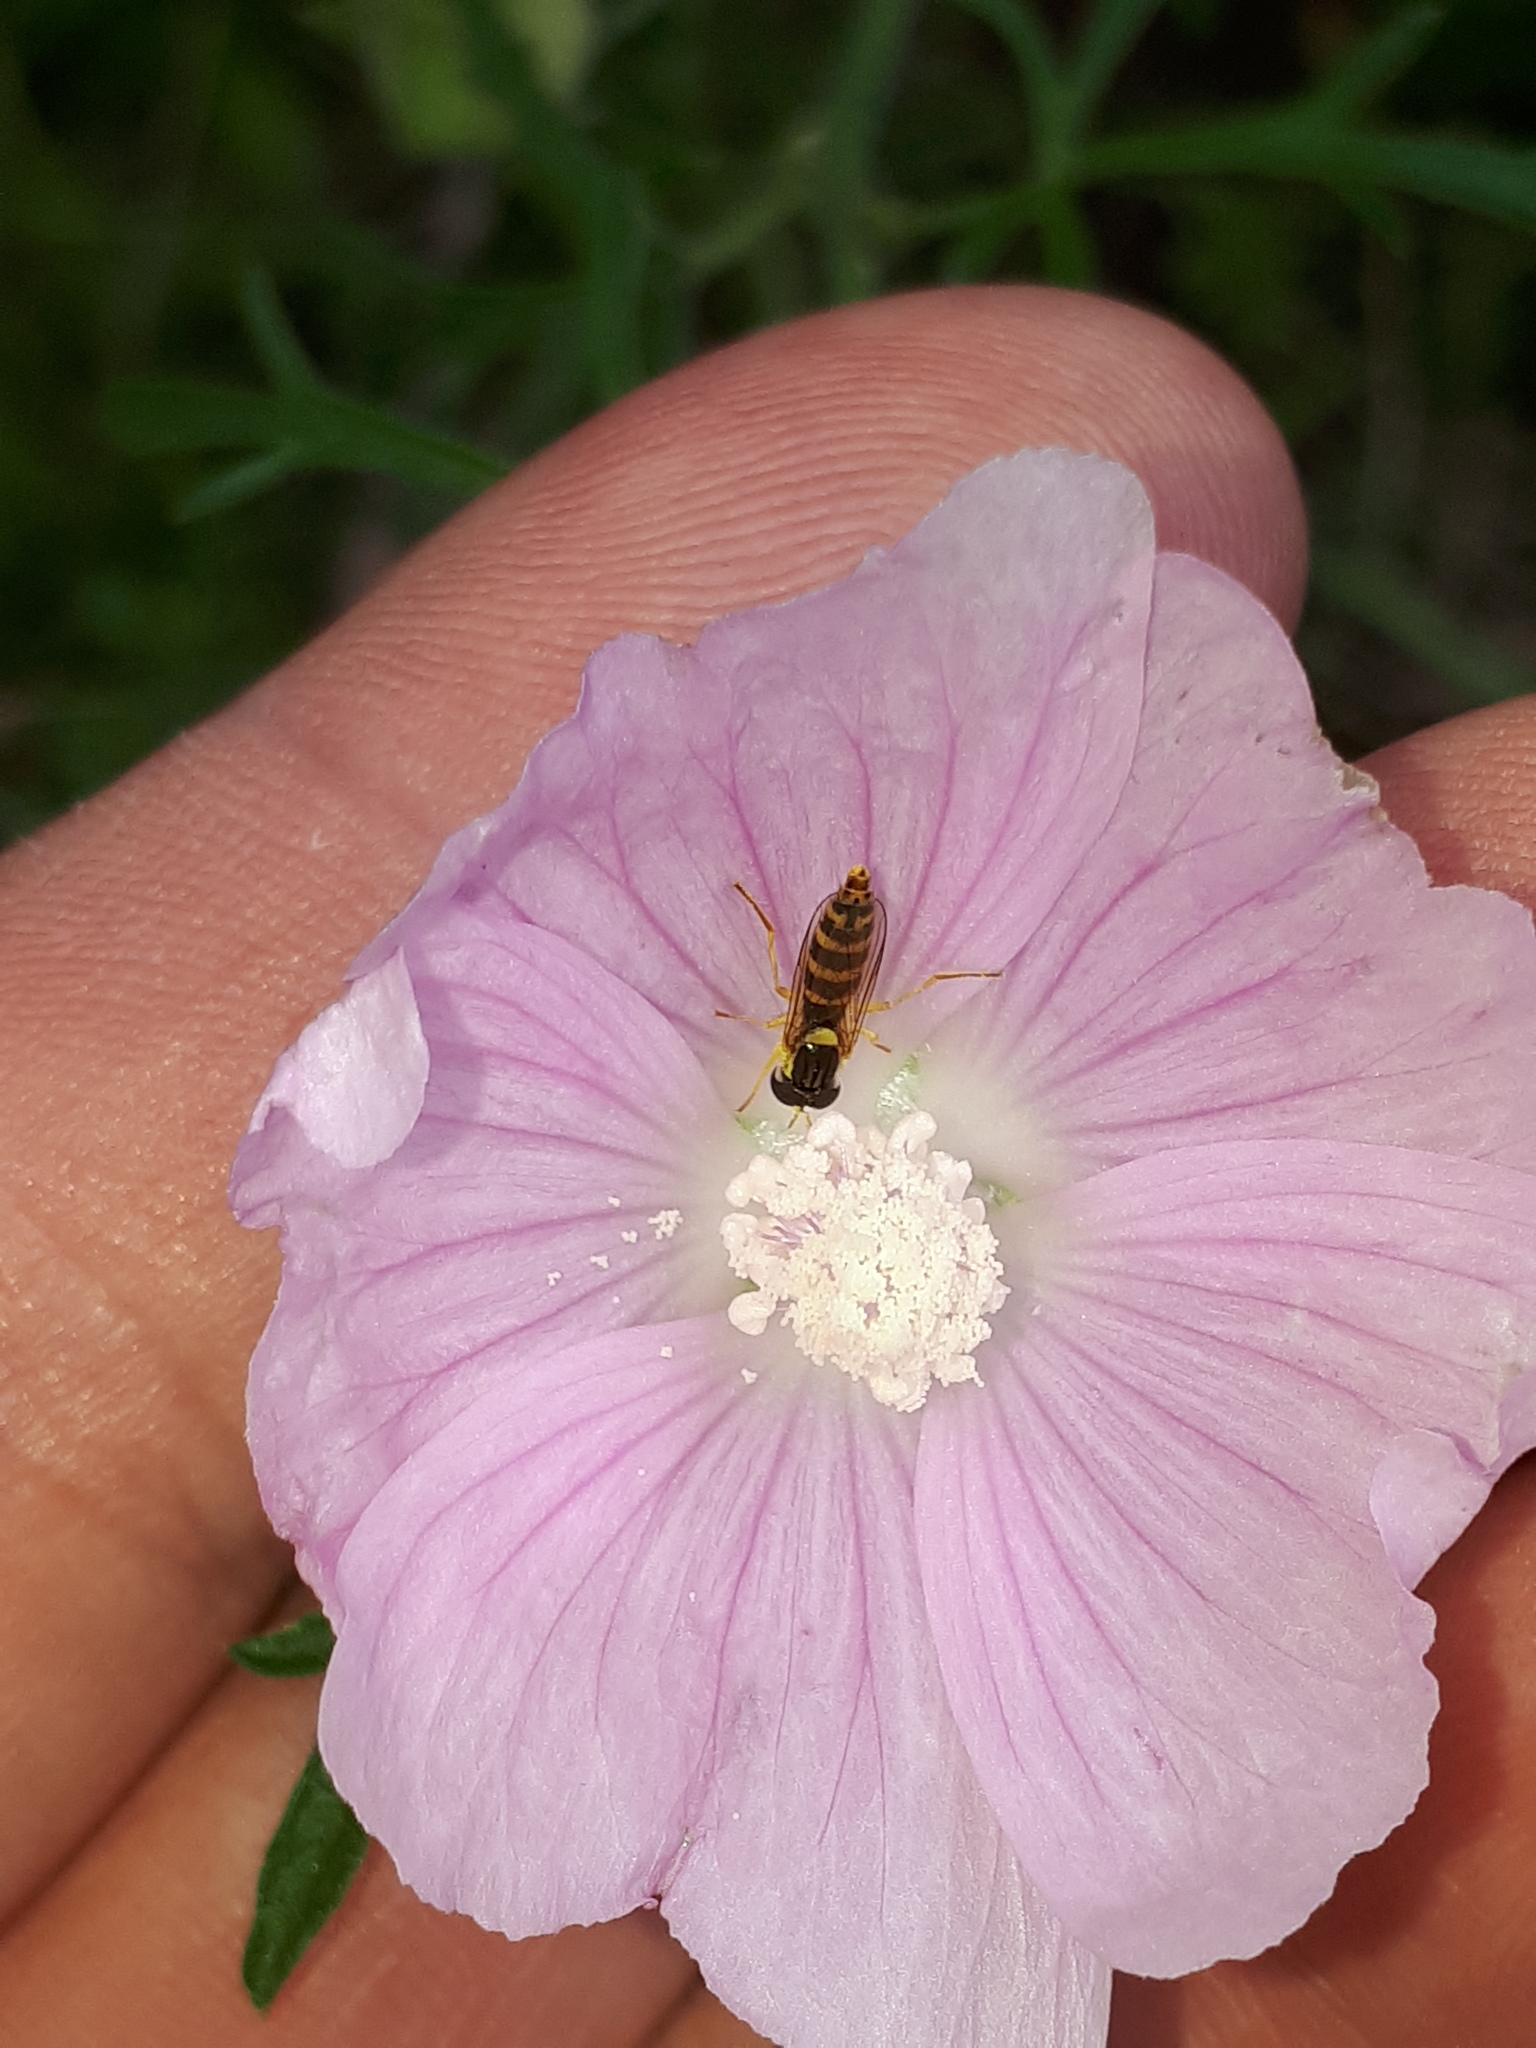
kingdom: Animalia
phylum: Arthropoda
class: Insecta
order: Diptera
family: Syrphidae
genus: Sphaerophoria
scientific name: Sphaerophoria
